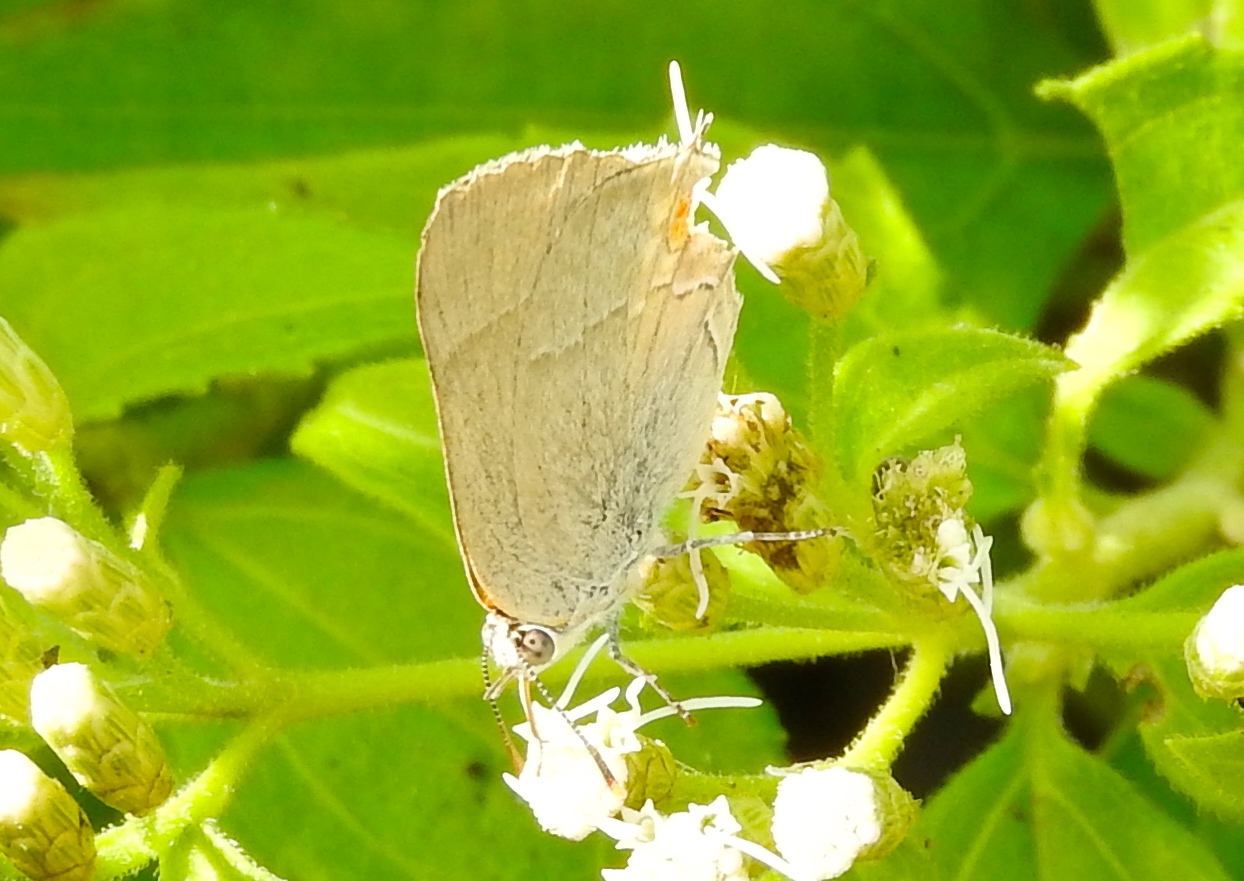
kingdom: Animalia
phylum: Arthropoda
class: Insecta
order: Lepidoptera
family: Lycaenidae
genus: Thecla
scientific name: Thecla marius
